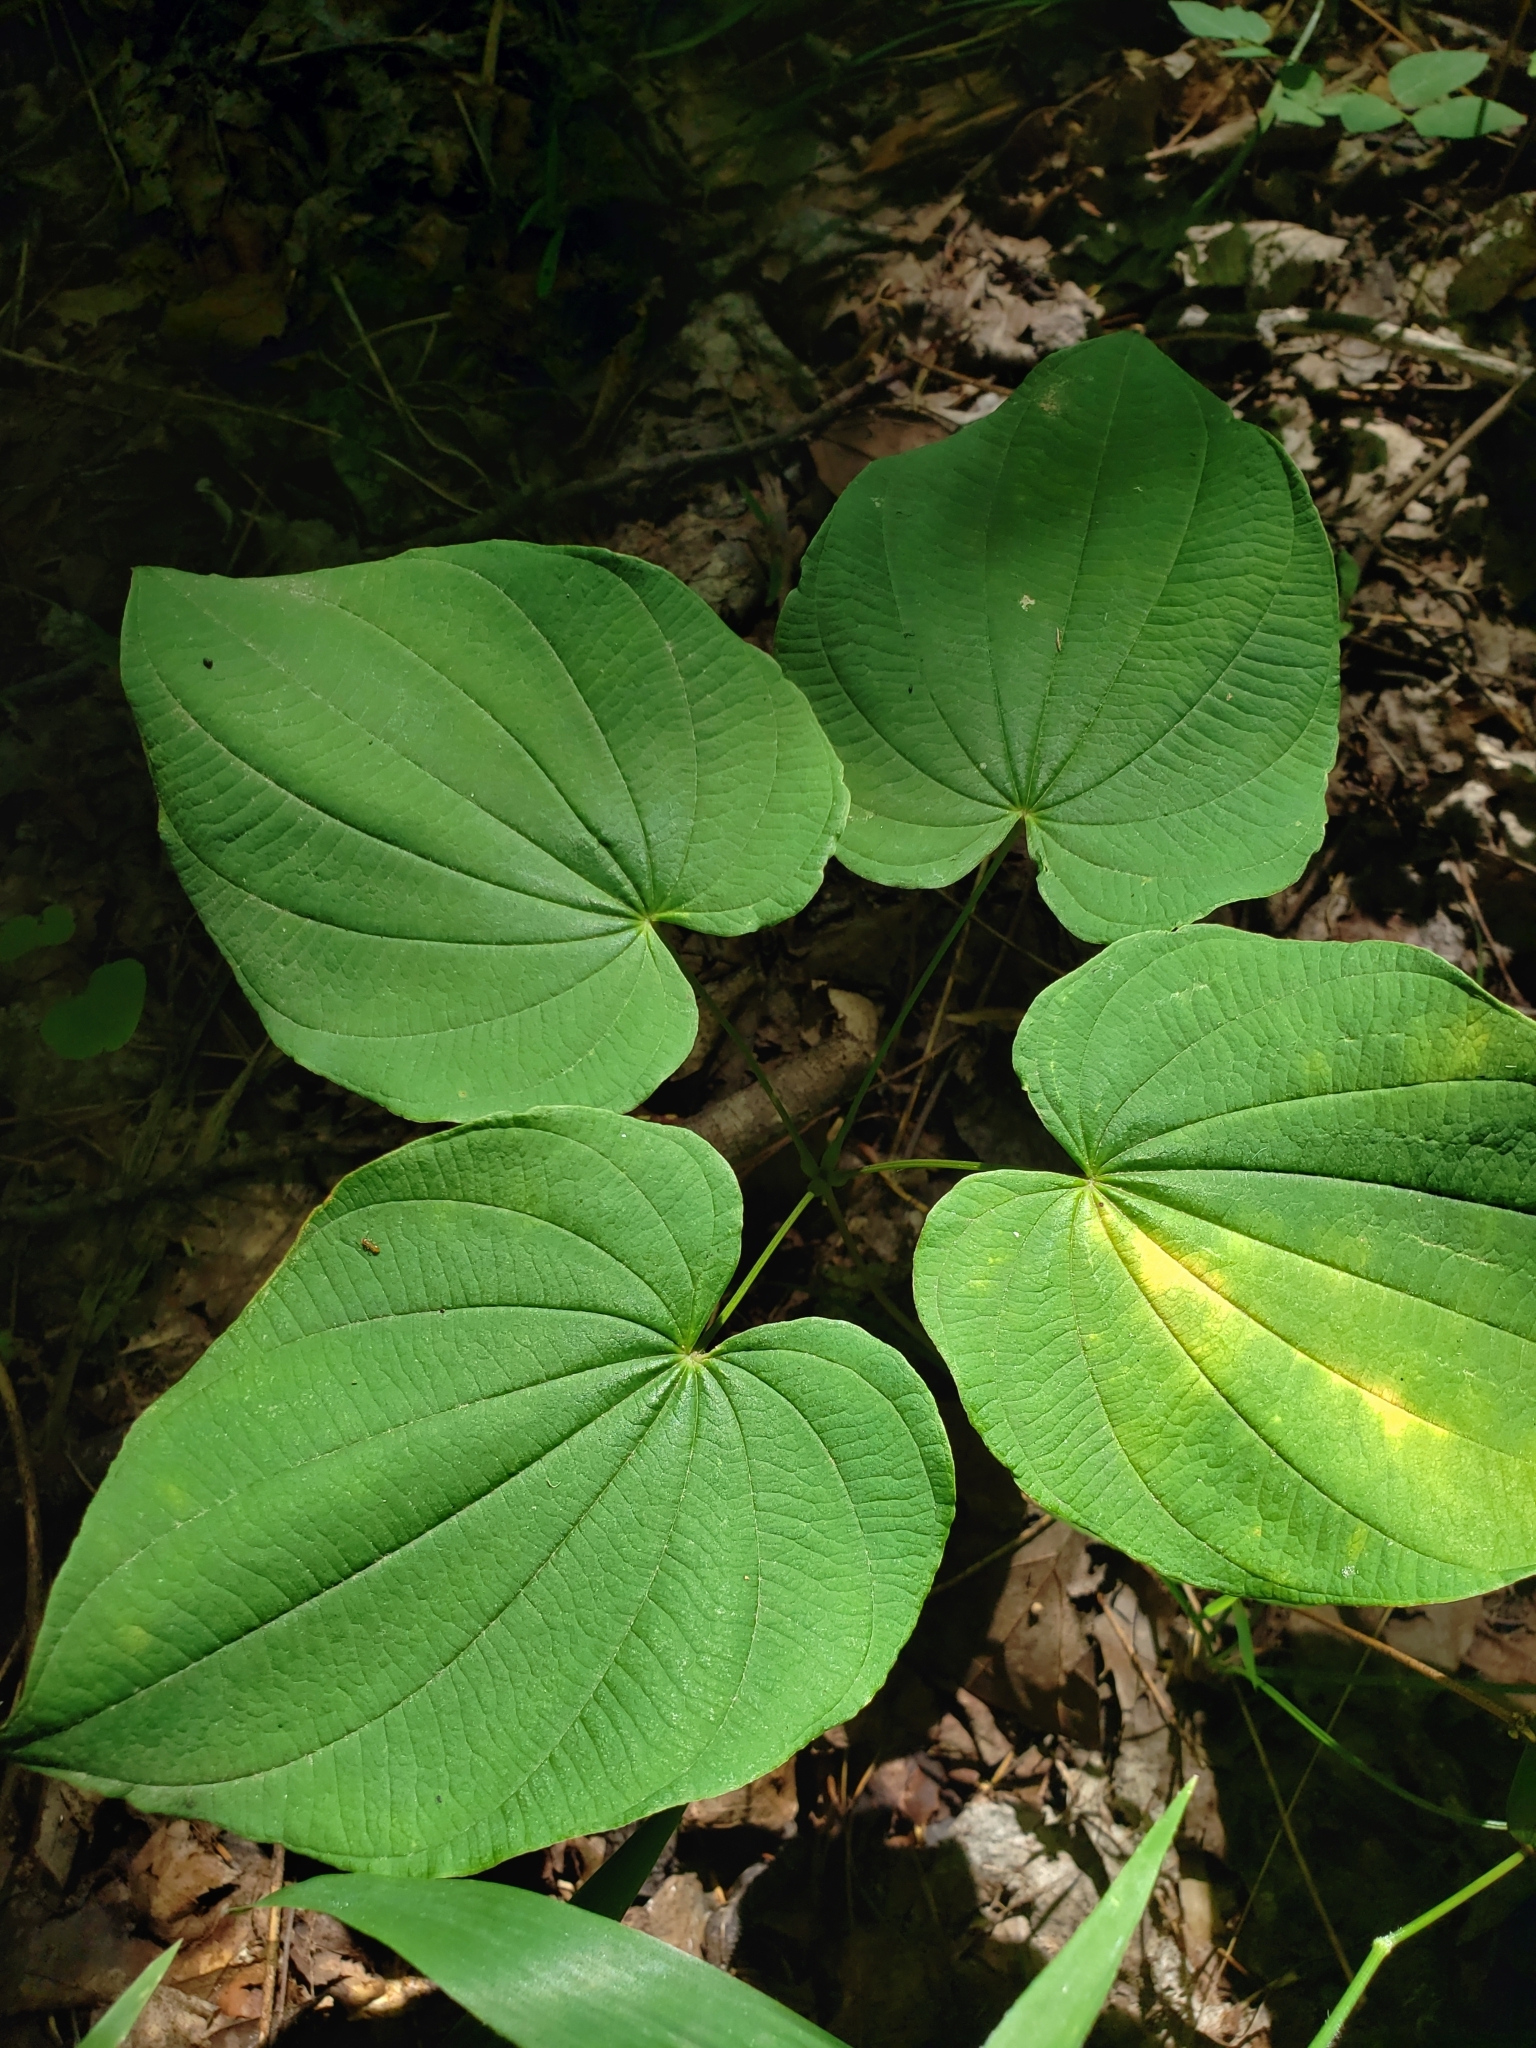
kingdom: Plantae
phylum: Tracheophyta
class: Liliopsida
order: Dioscoreales
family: Dioscoreaceae
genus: Dioscorea
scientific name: Dioscorea villosa
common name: Wild yam
